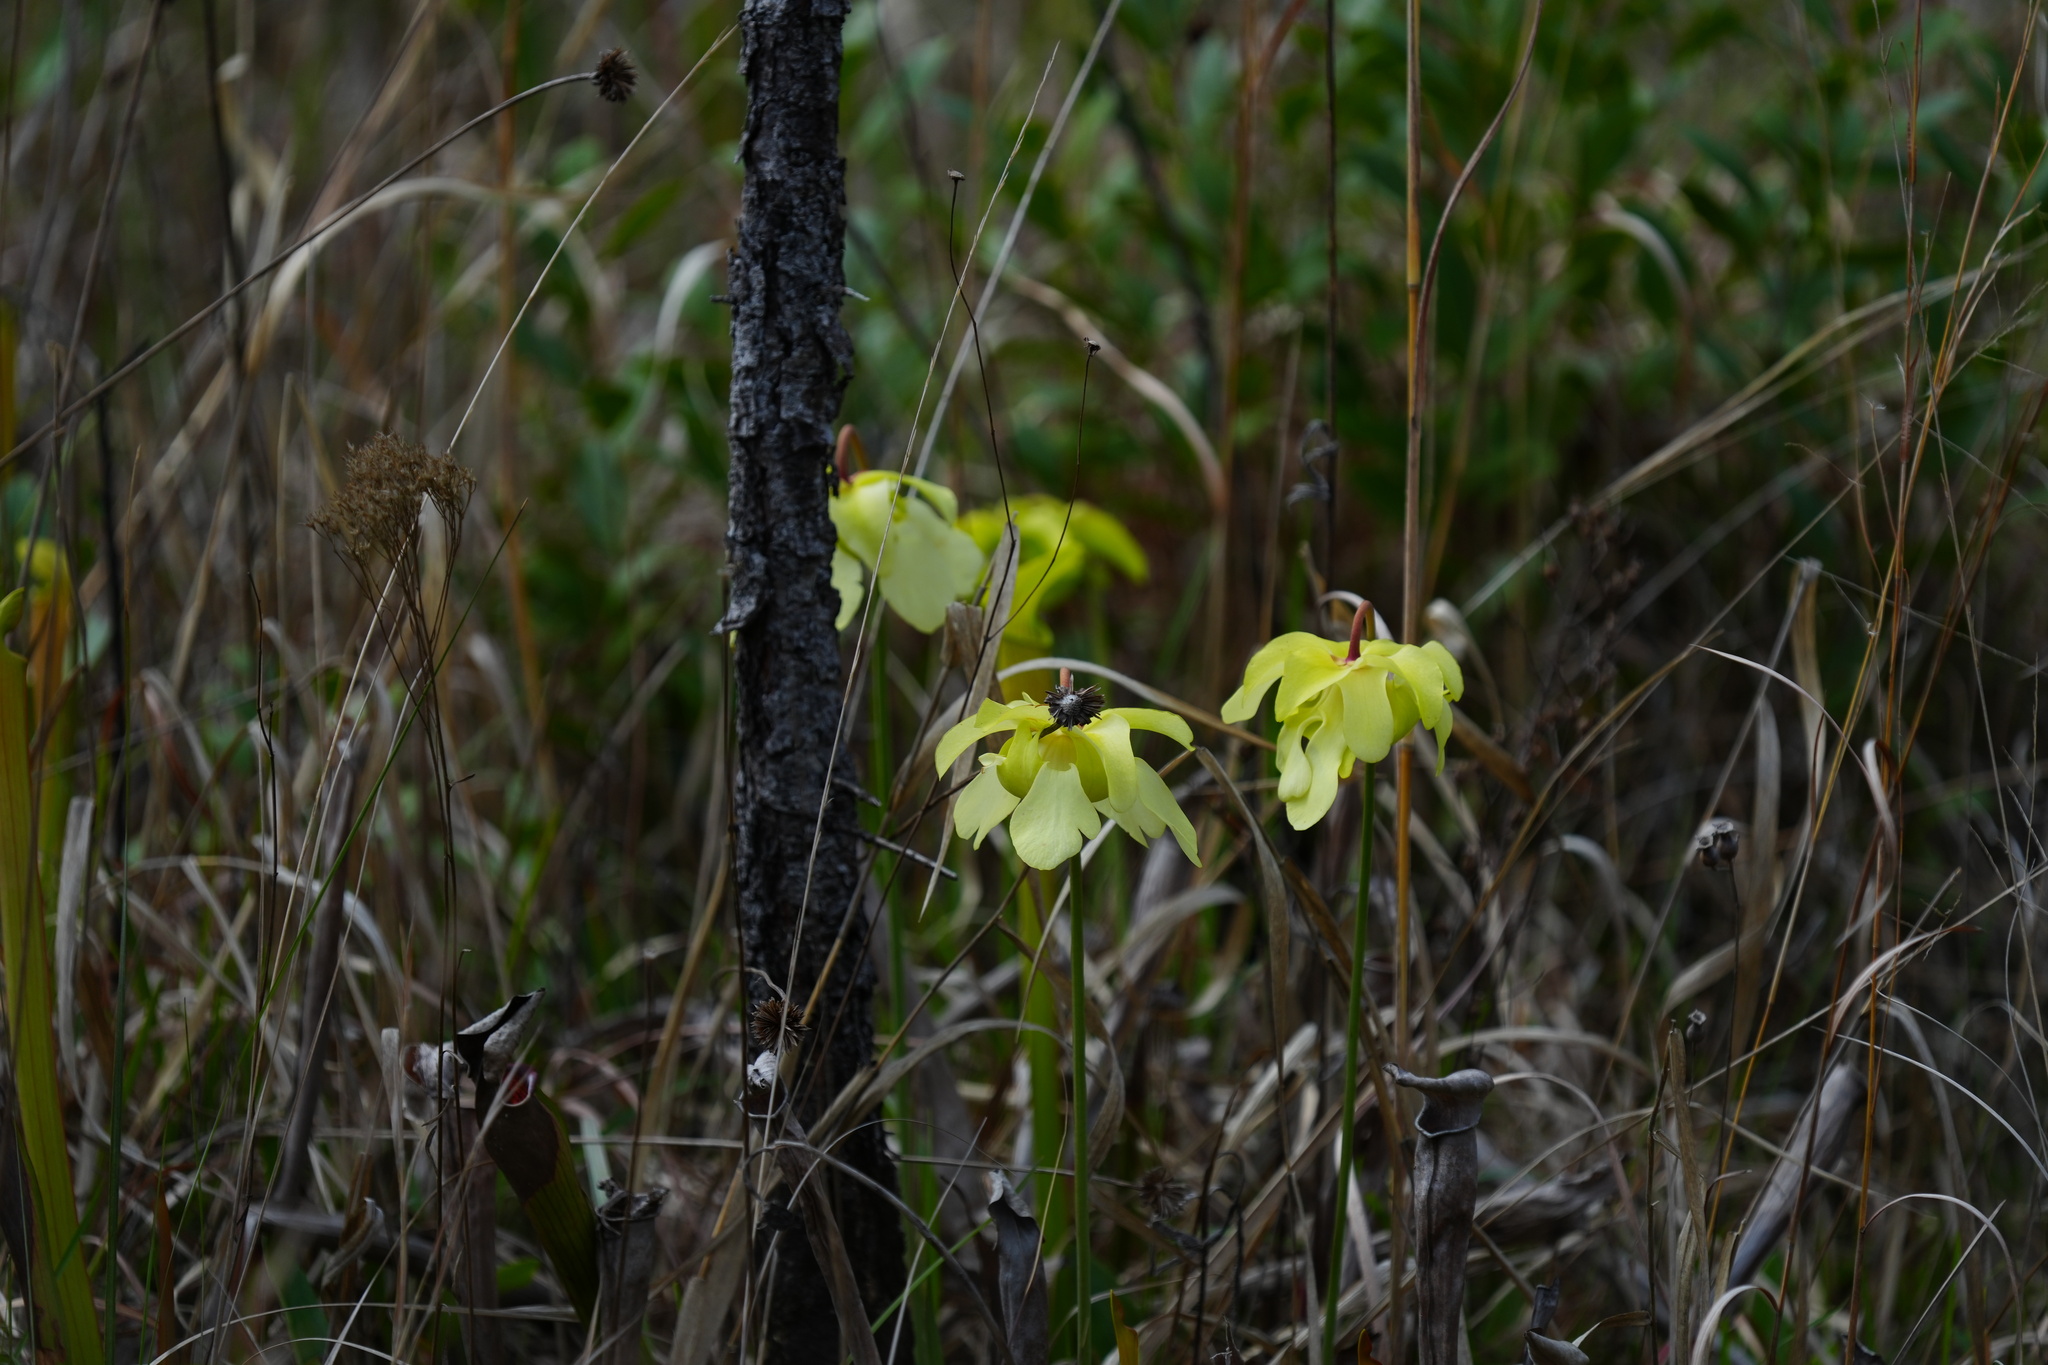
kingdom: Plantae
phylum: Tracheophyta
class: Magnoliopsida
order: Ericales
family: Sarraceniaceae
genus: Sarracenia
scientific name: Sarracenia alata
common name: Yellow trumpets
